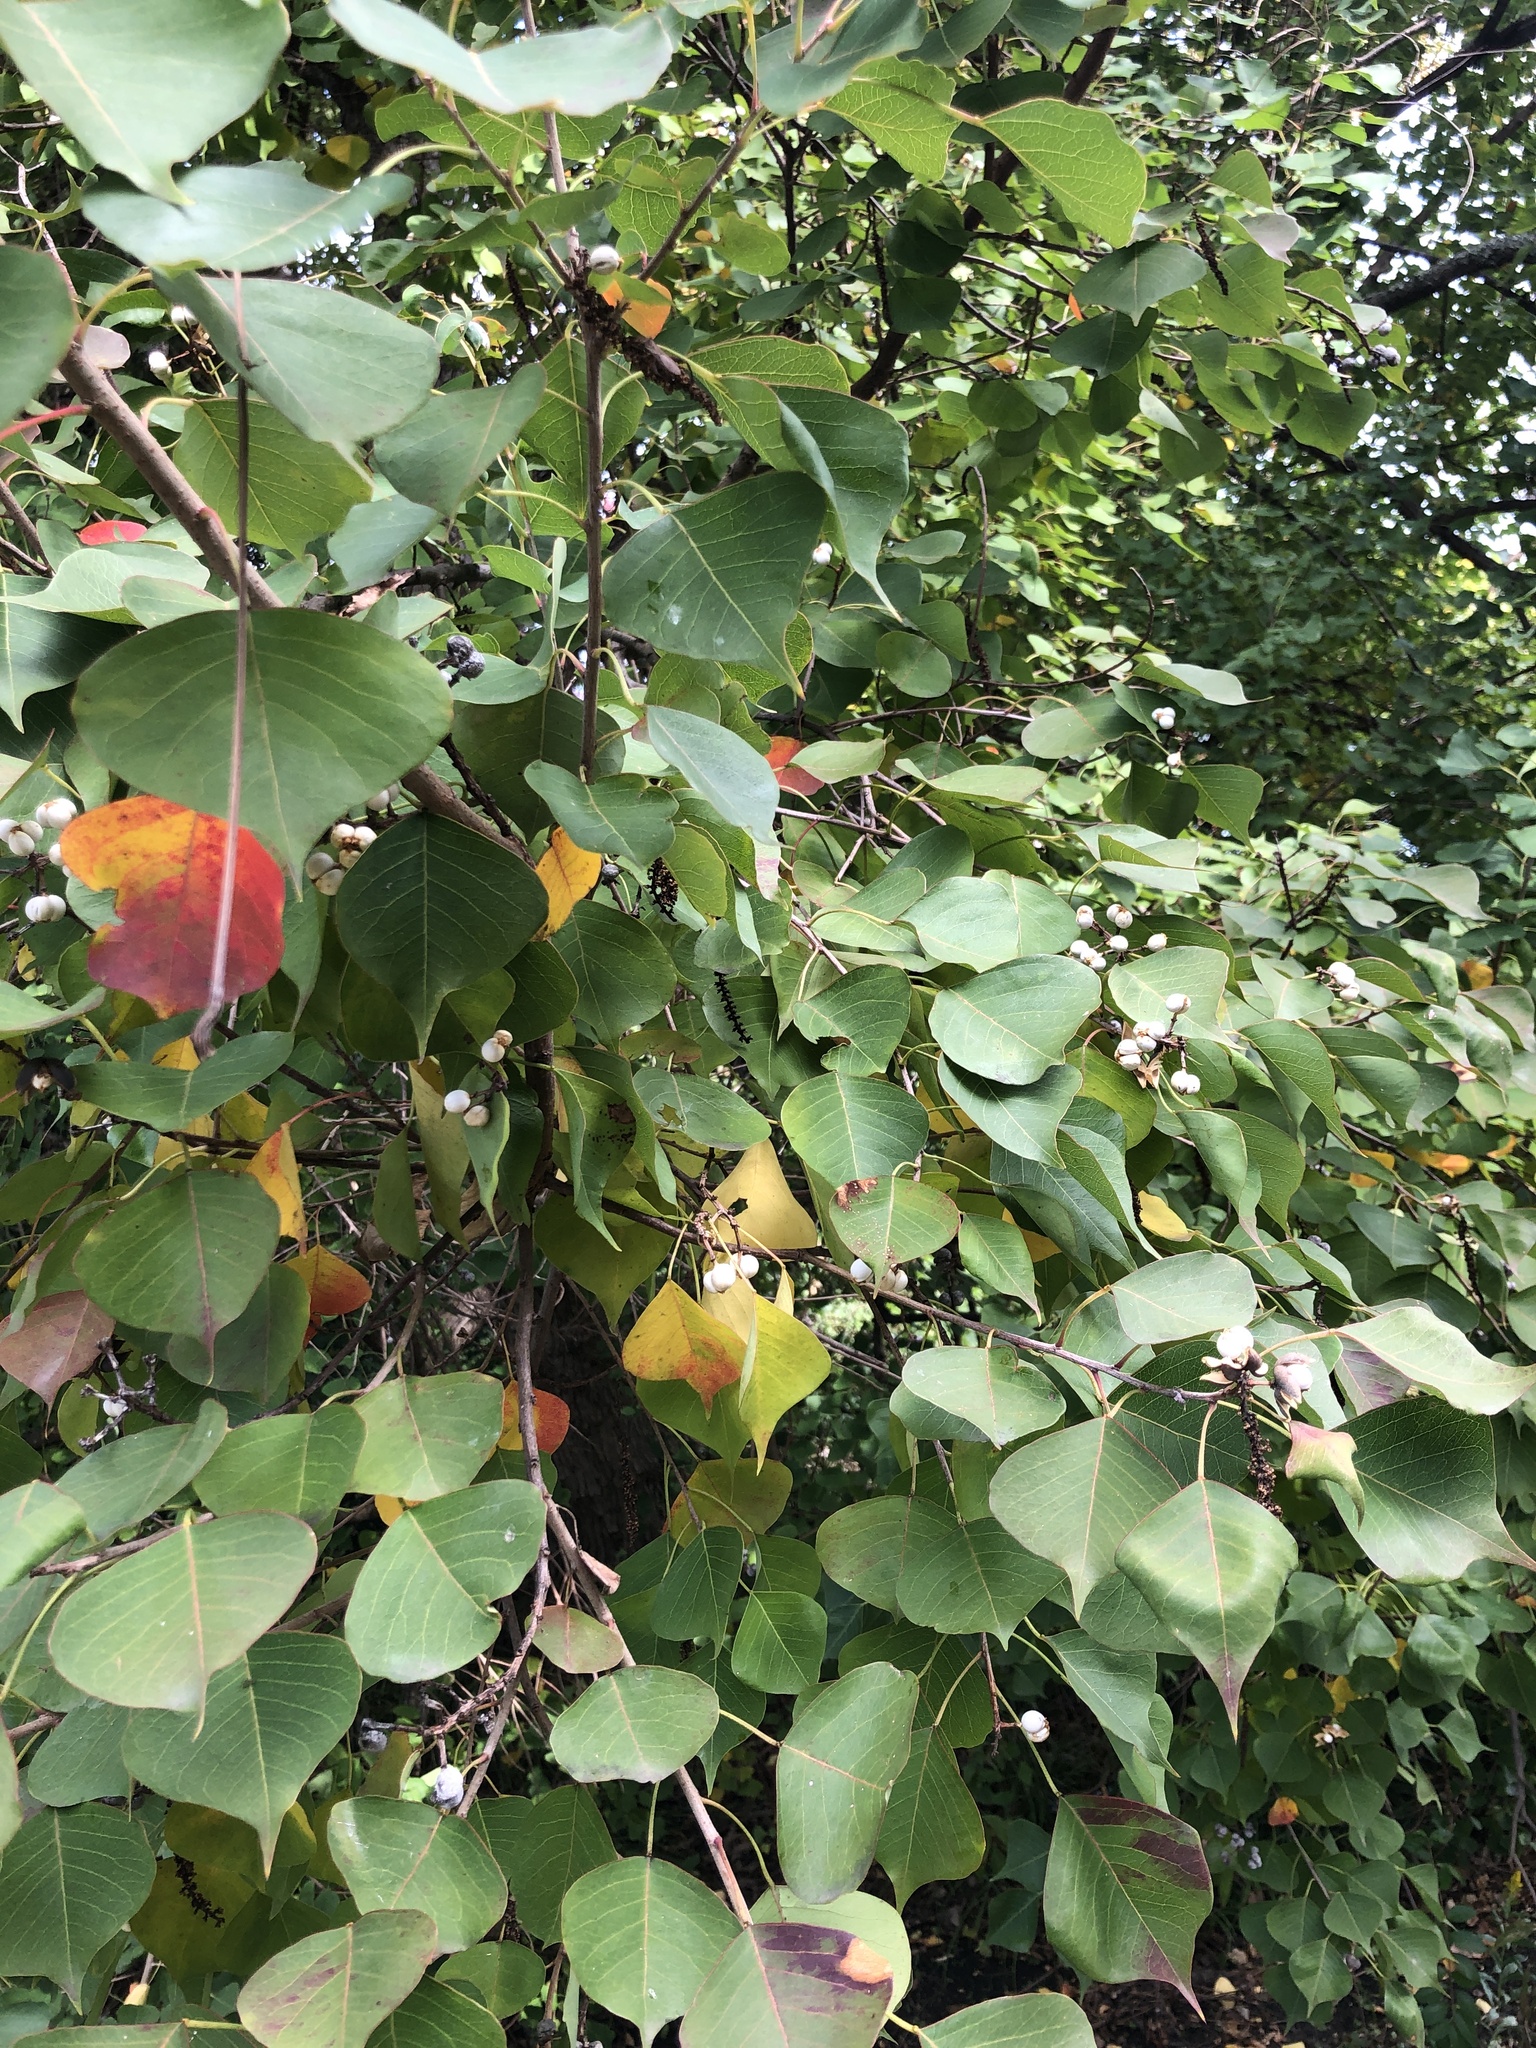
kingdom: Plantae
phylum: Tracheophyta
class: Magnoliopsida
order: Malpighiales
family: Euphorbiaceae
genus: Triadica
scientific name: Triadica sebifera
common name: Chinese tallow
